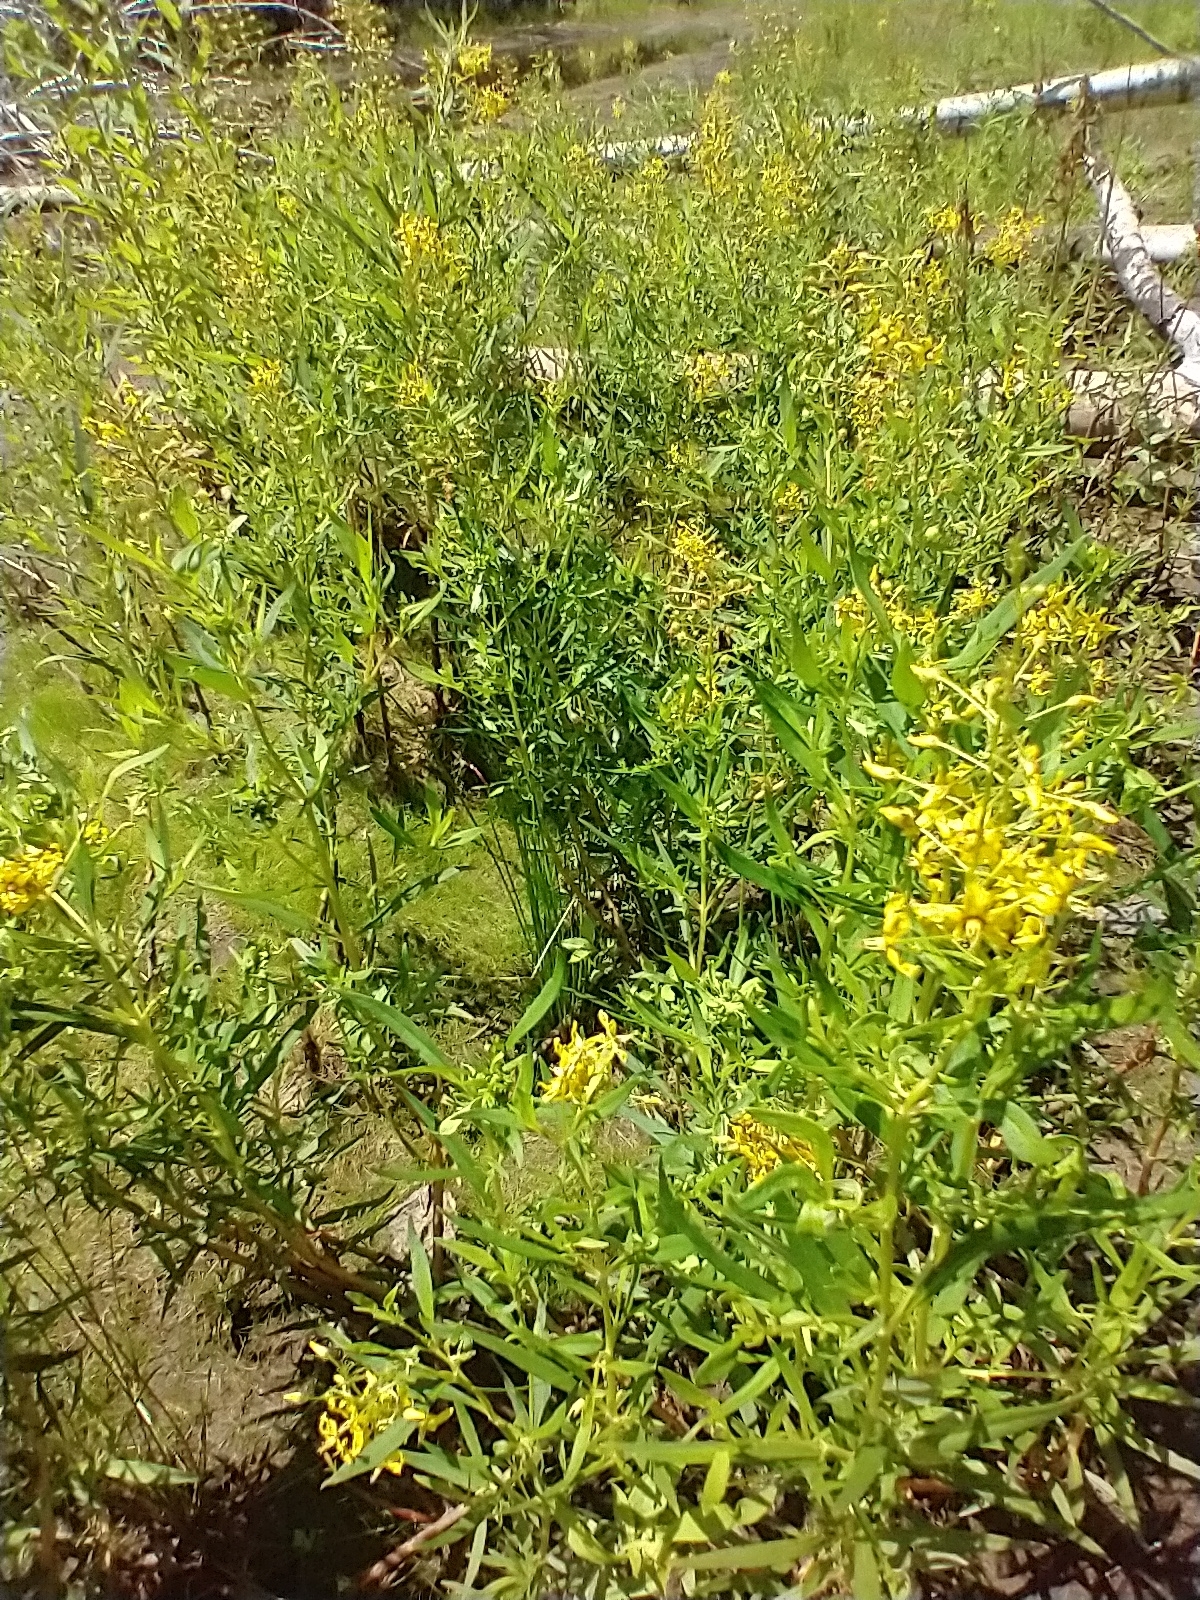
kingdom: Plantae
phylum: Tracheophyta
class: Magnoliopsida
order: Ericales
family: Primulaceae
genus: Lysimachia
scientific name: Lysimachia terrestris
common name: Lake loosestrife
